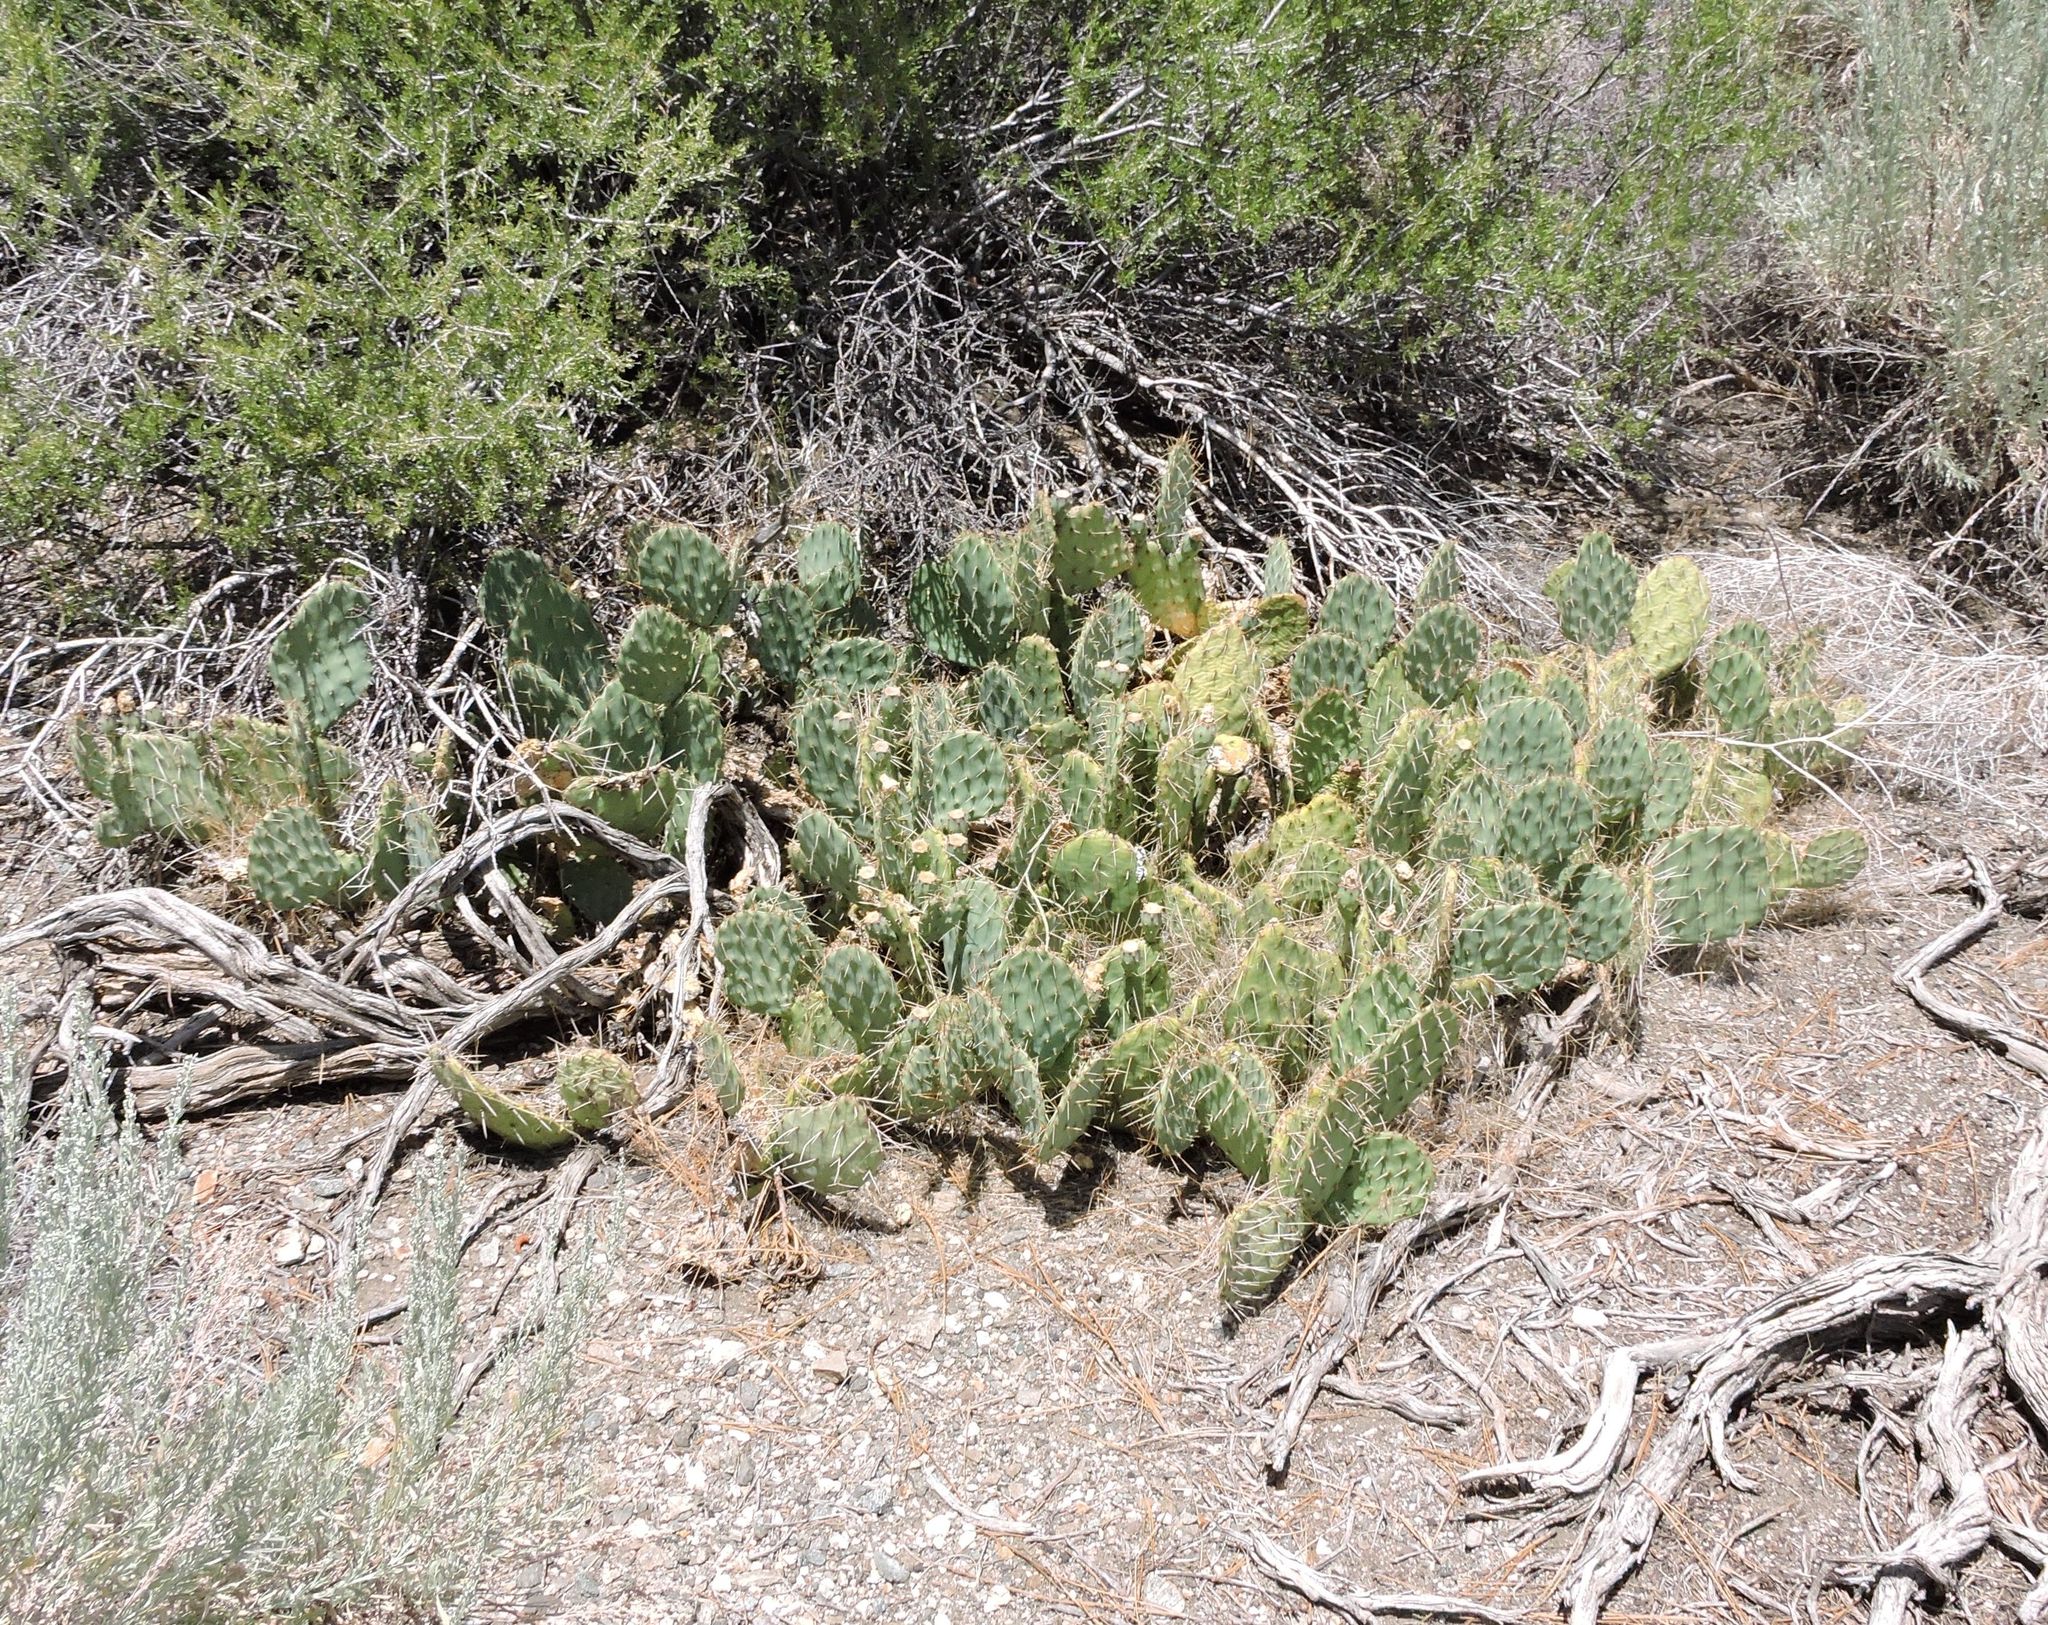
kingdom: Plantae
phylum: Tracheophyta
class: Magnoliopsida
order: Rosales
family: Rosaceae
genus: Prunus
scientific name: Prunus fasciculata
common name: Desert almond
